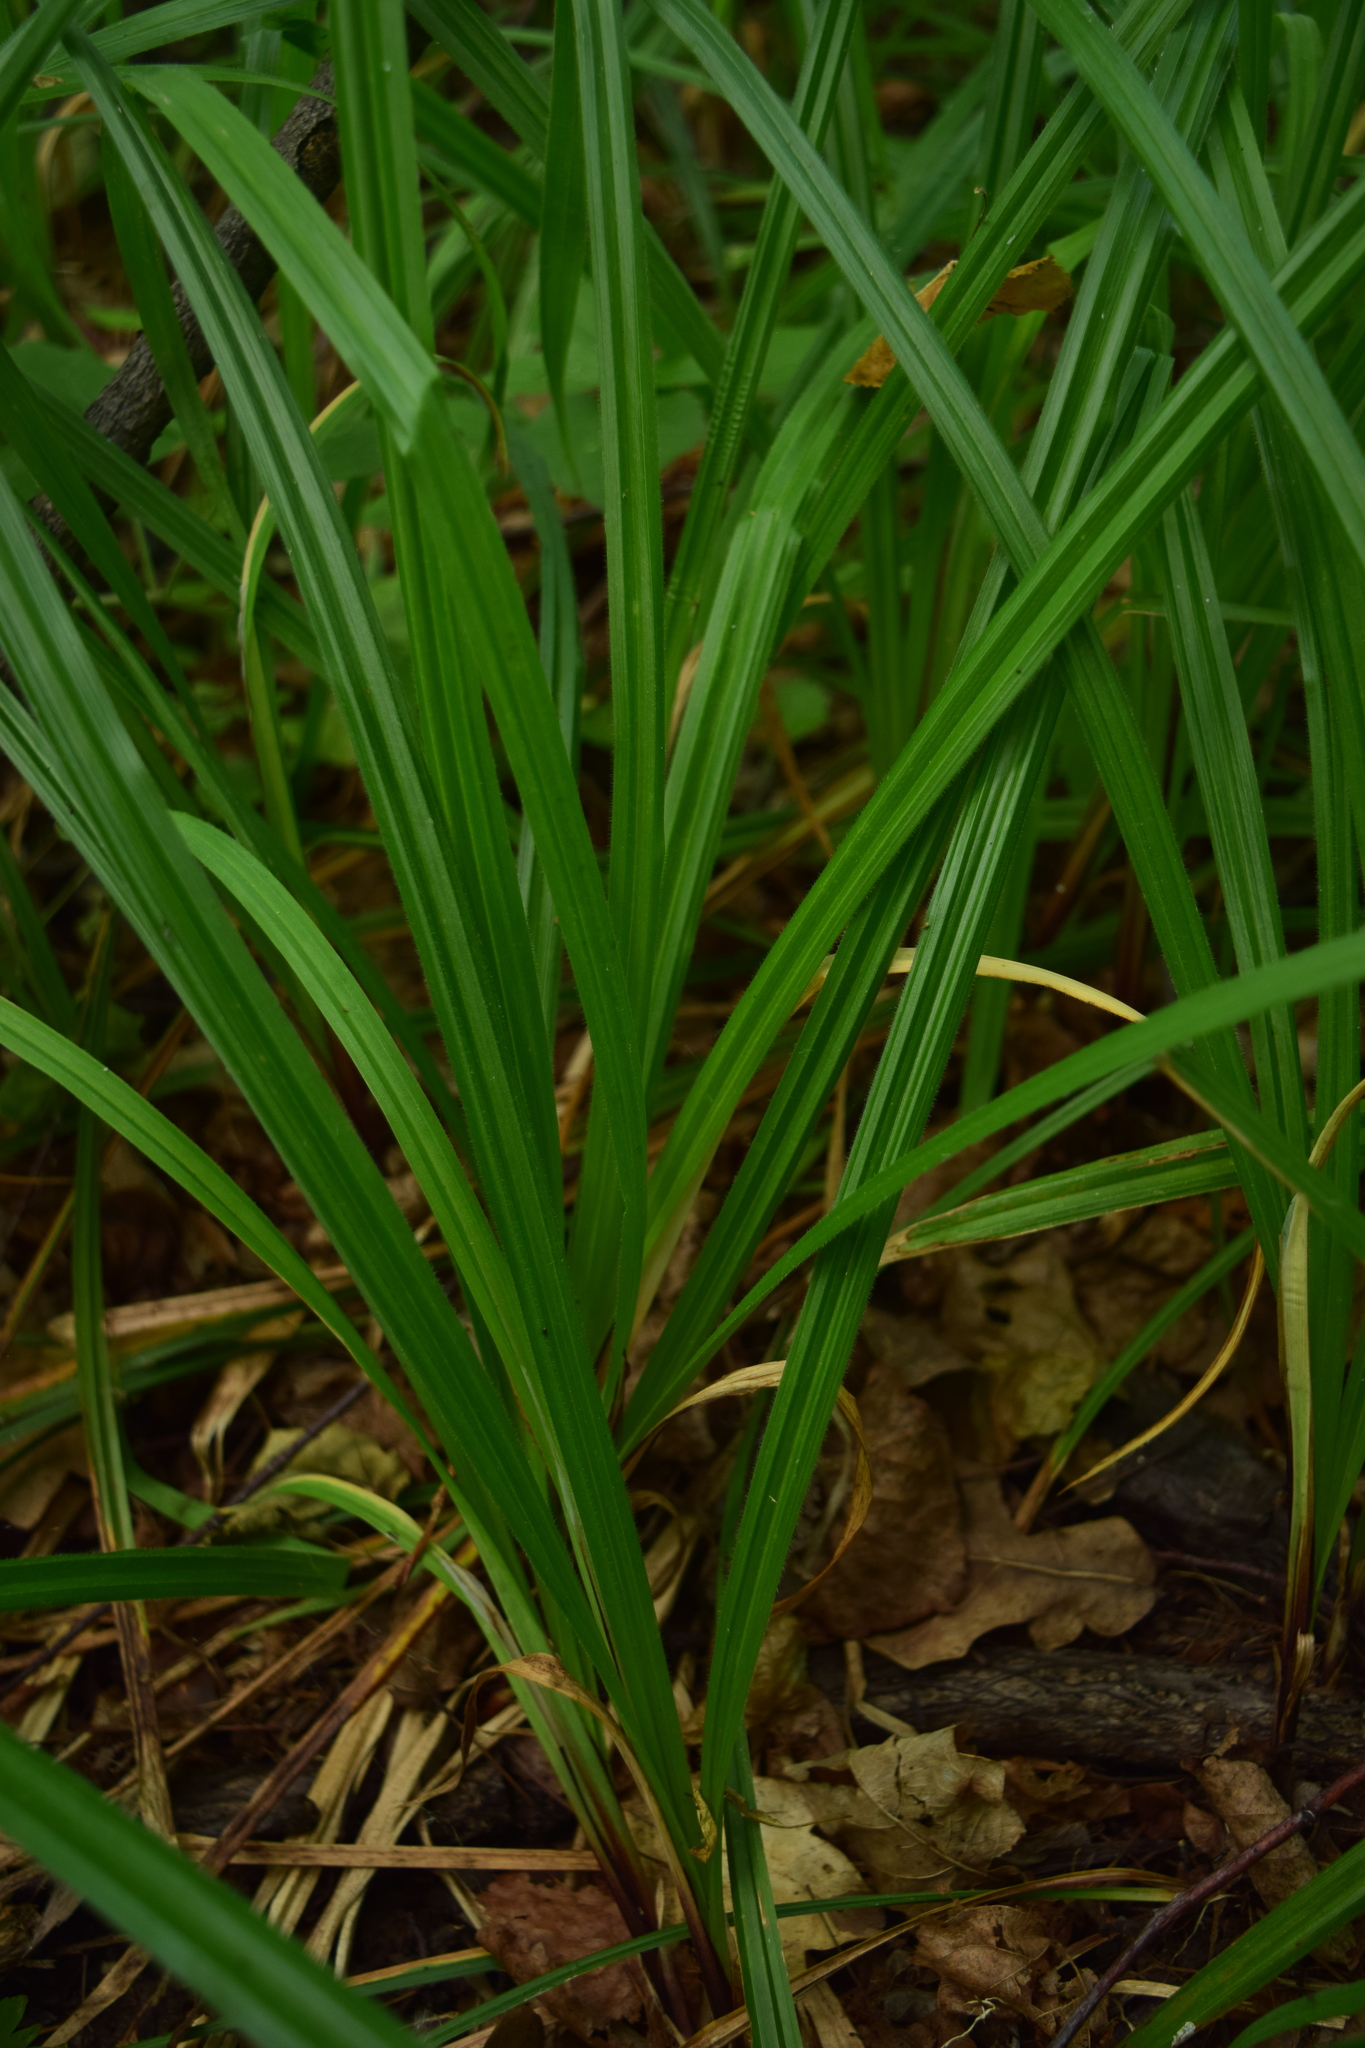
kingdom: Plantae
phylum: Tracheophyta
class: Liliopsida
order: Poales
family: Cyperaceae
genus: Carex
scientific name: Carex pilosa
